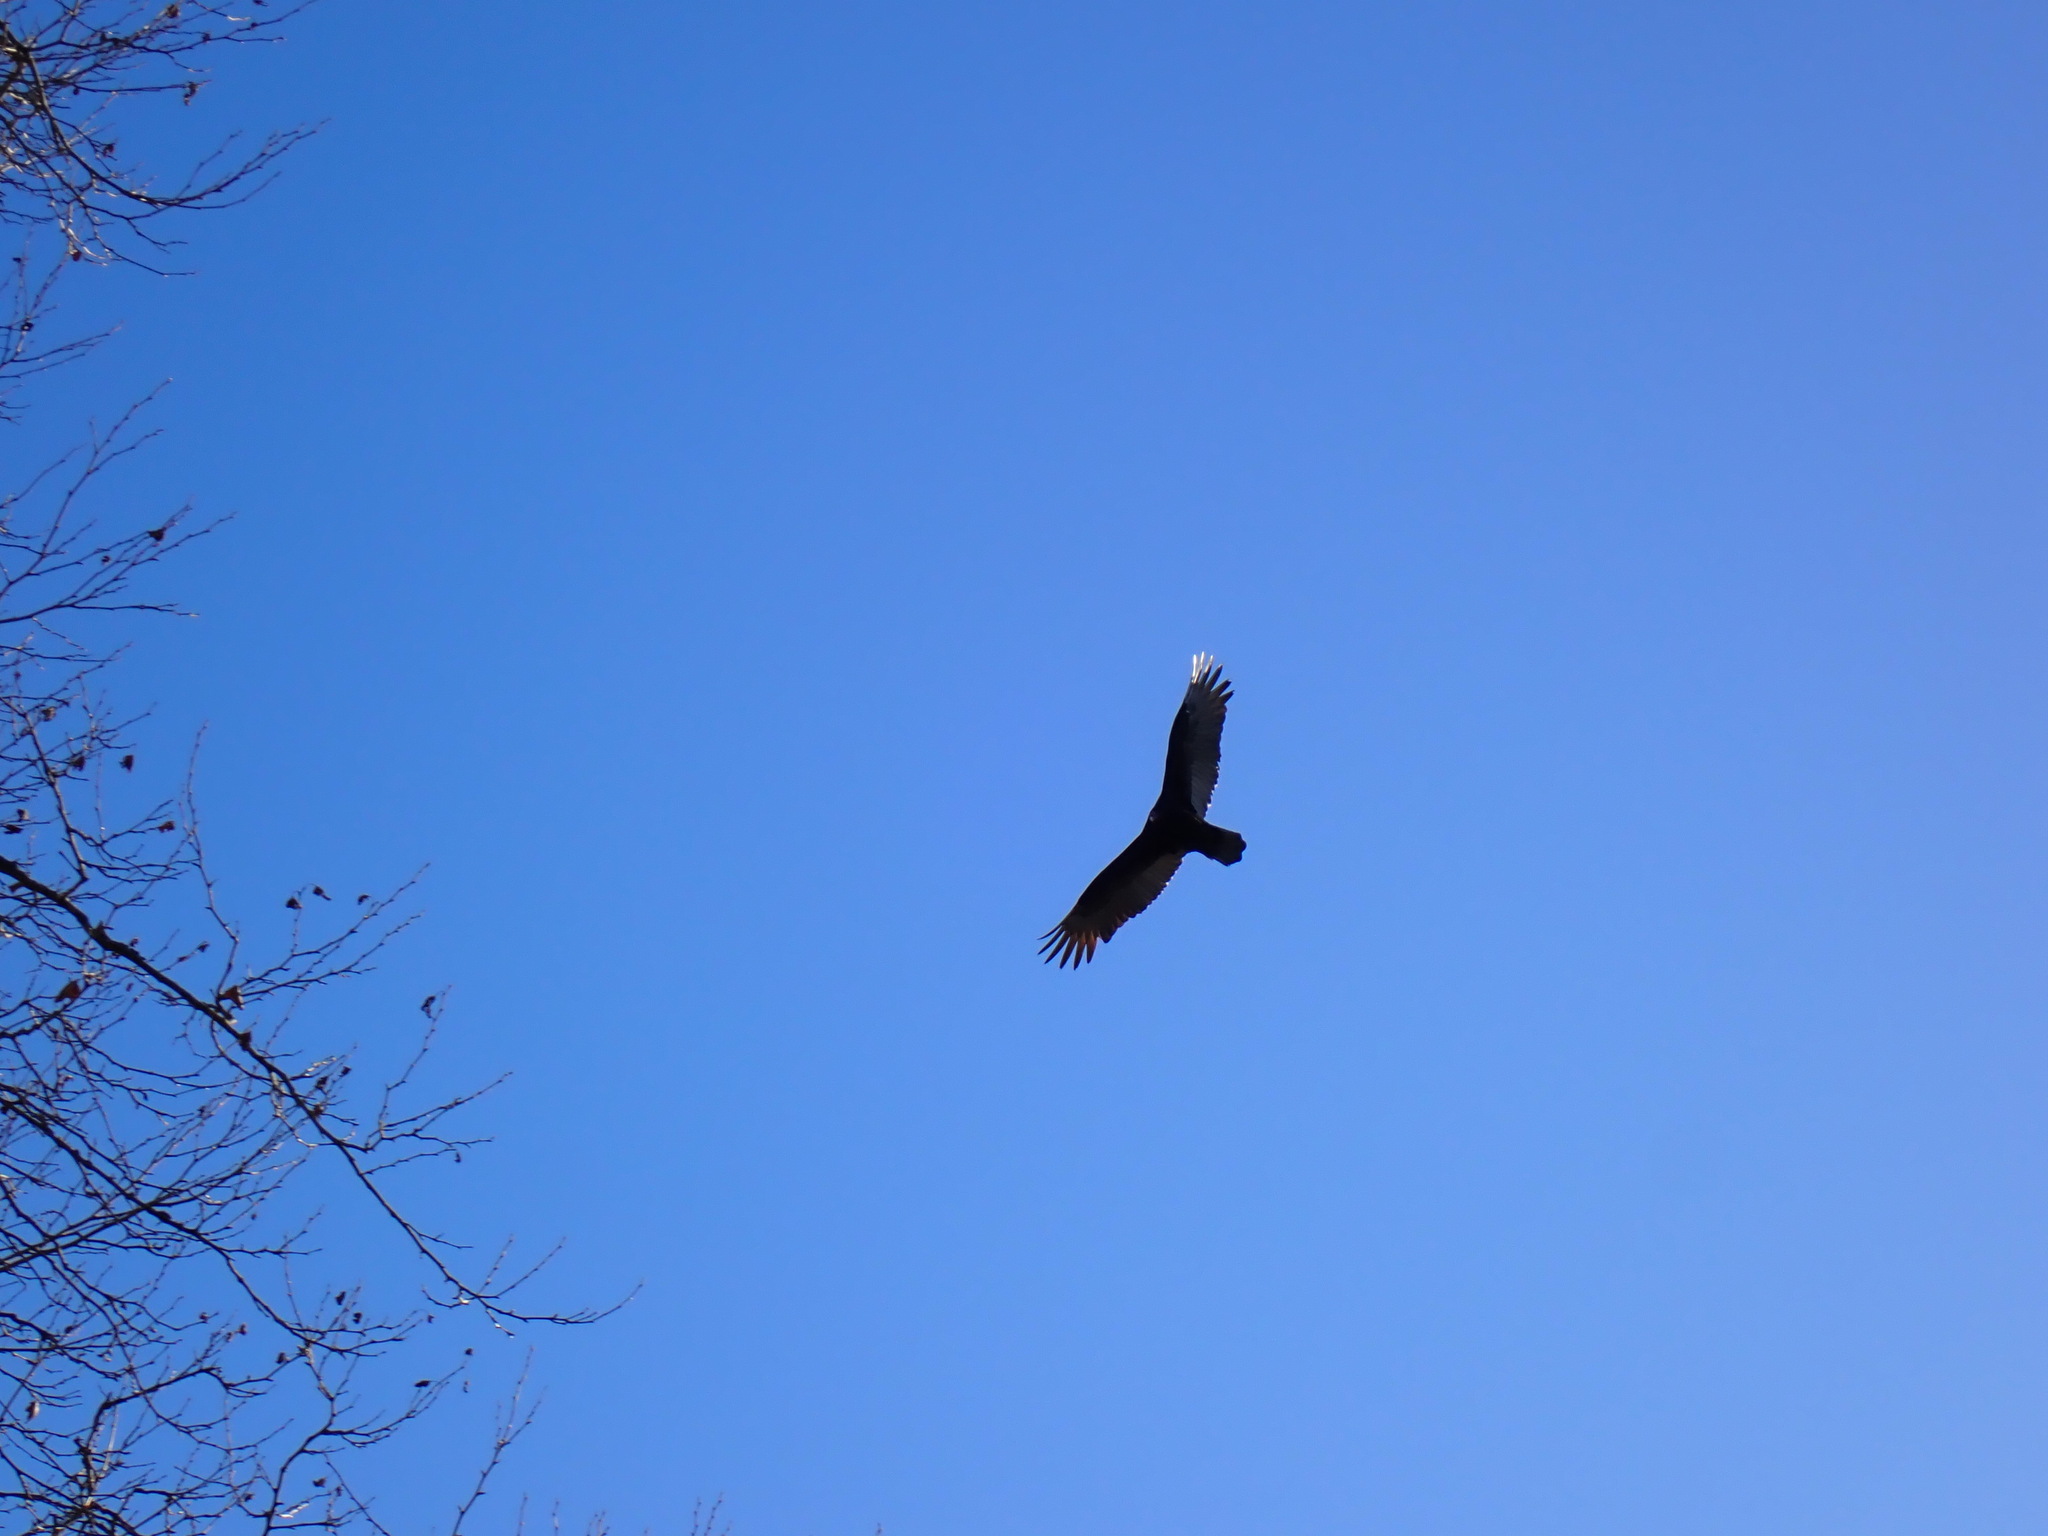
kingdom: Animalia
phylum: Chordata
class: Aves
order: Accipitriformes
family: Cathartidae
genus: Cathartes
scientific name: Cathartes aura
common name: Turkey vulture
